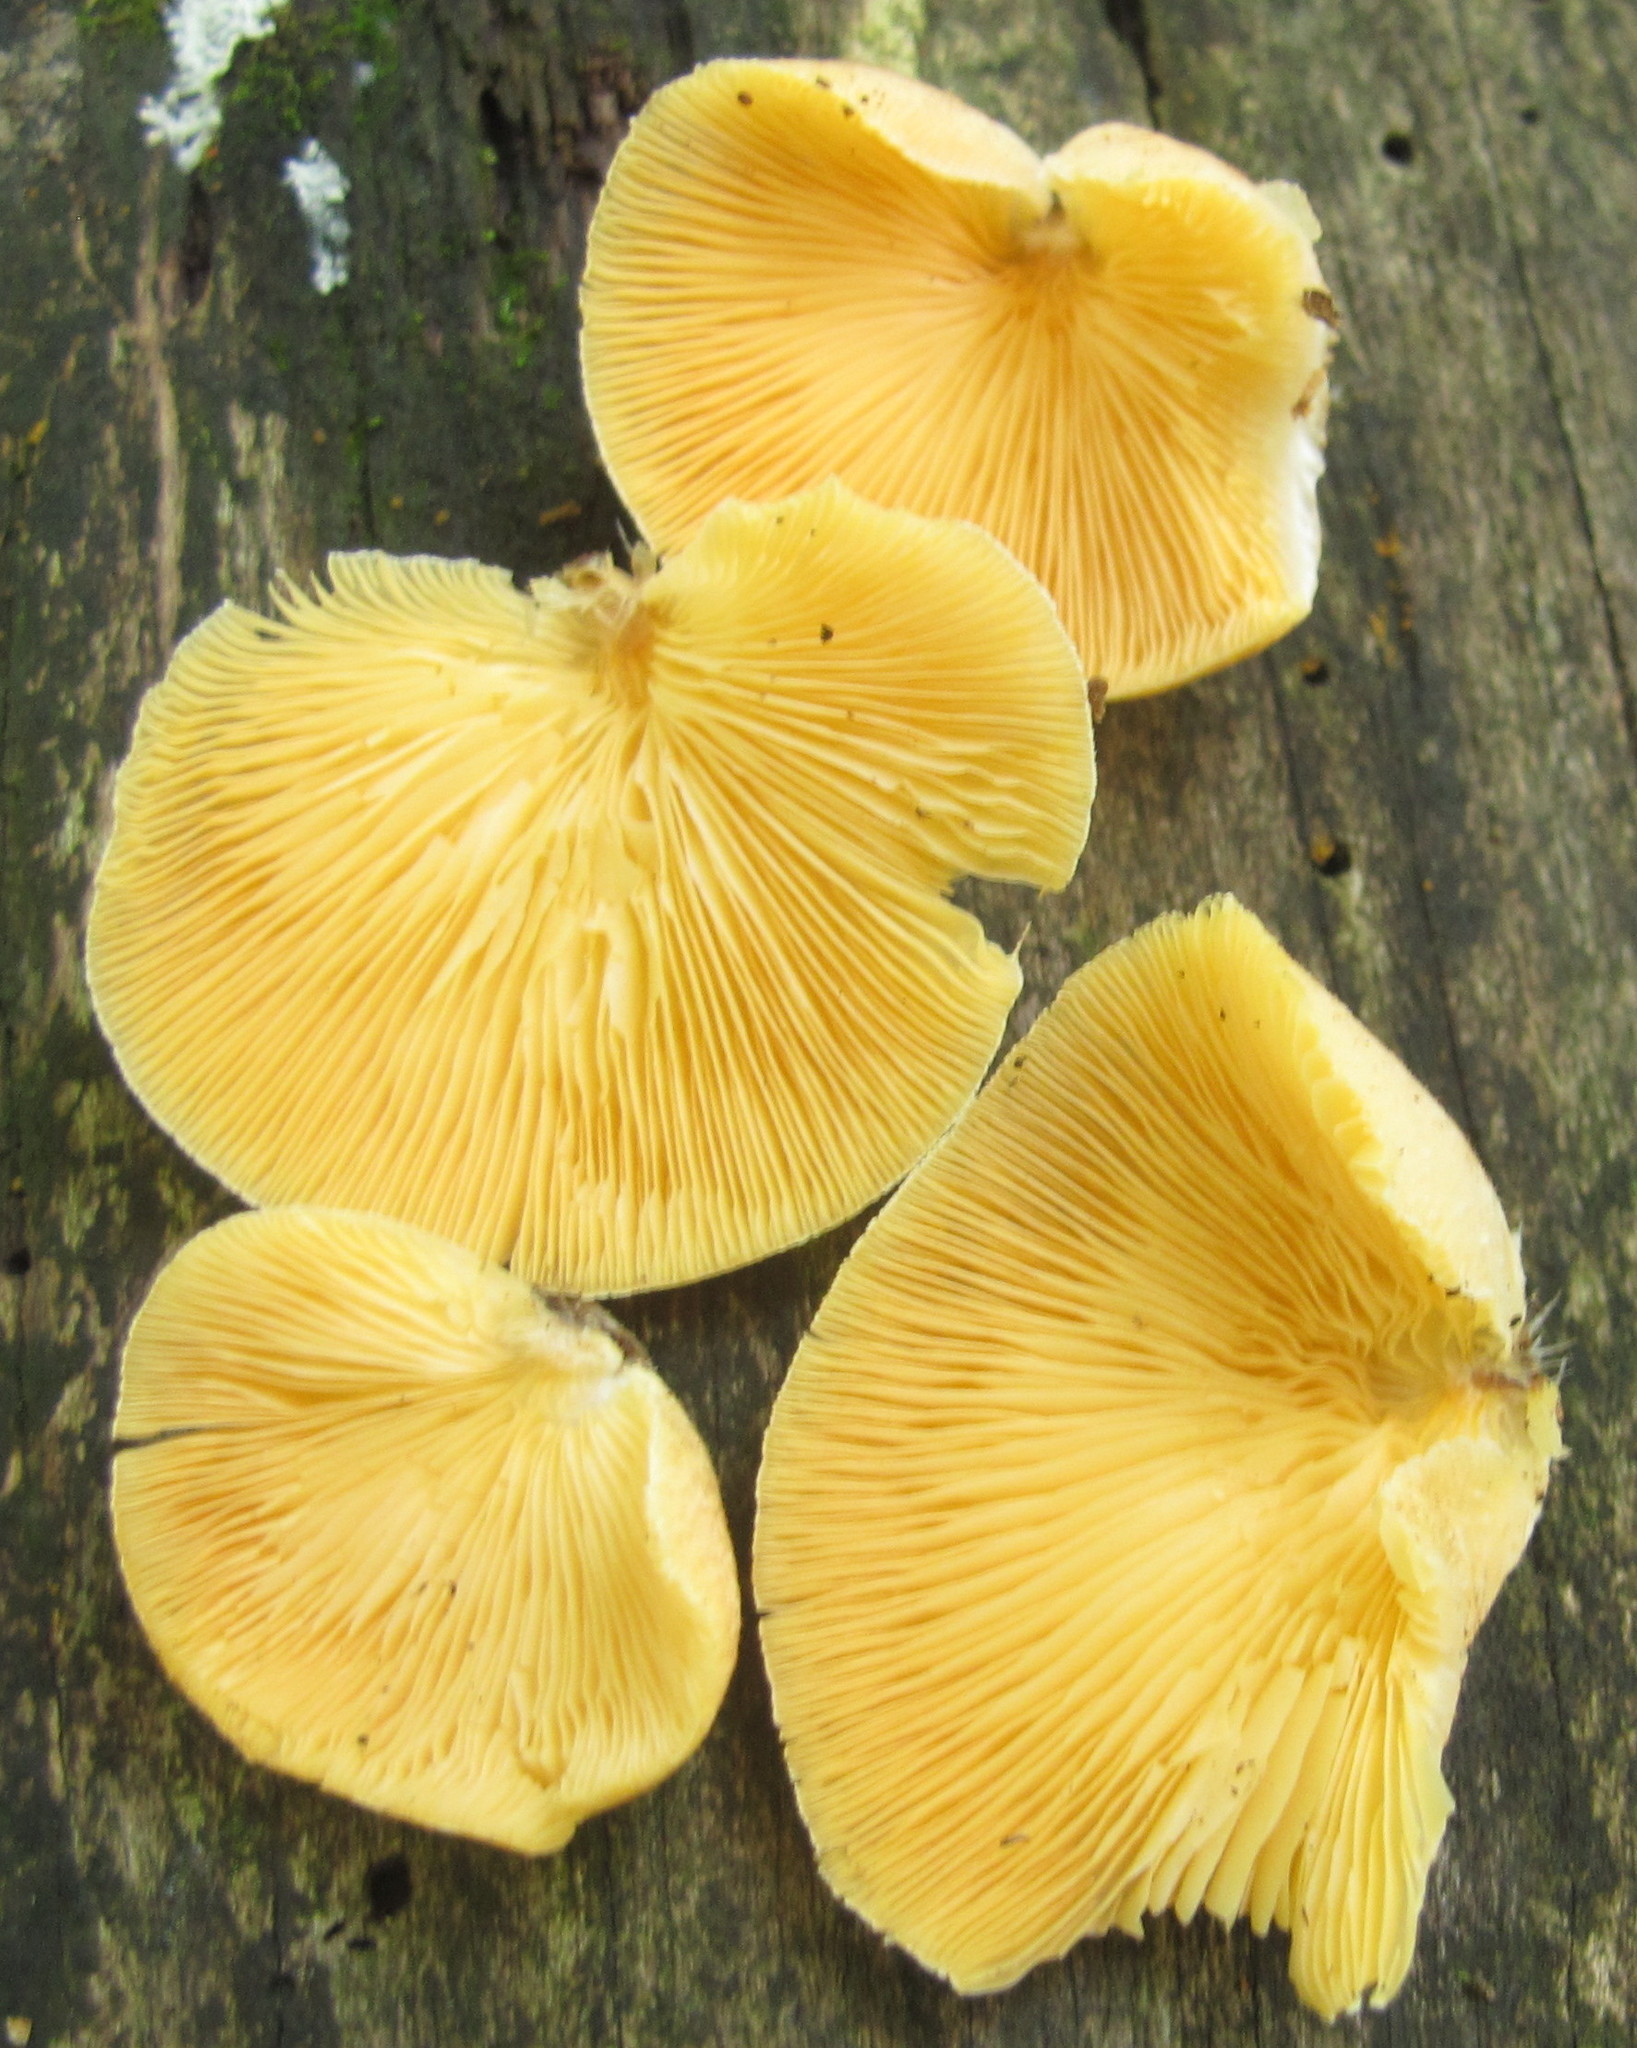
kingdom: Fungi
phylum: Basidiomycota
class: Agaricomycetes
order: Agaricales
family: Crepidotaceae
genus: Crepidotus
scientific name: Crepidotus crocophyllus
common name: Saffron oysterling
